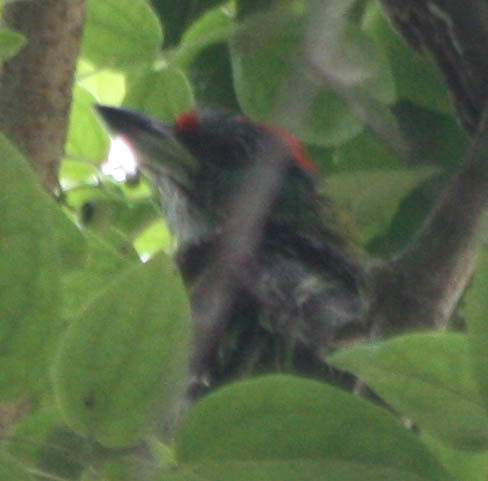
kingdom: Animalia
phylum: Chordata
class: Aves
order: Piciformes
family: Megalaimidae
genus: Psilopogon
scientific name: Psilopogon asiaticus
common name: Blue-throated barbet
